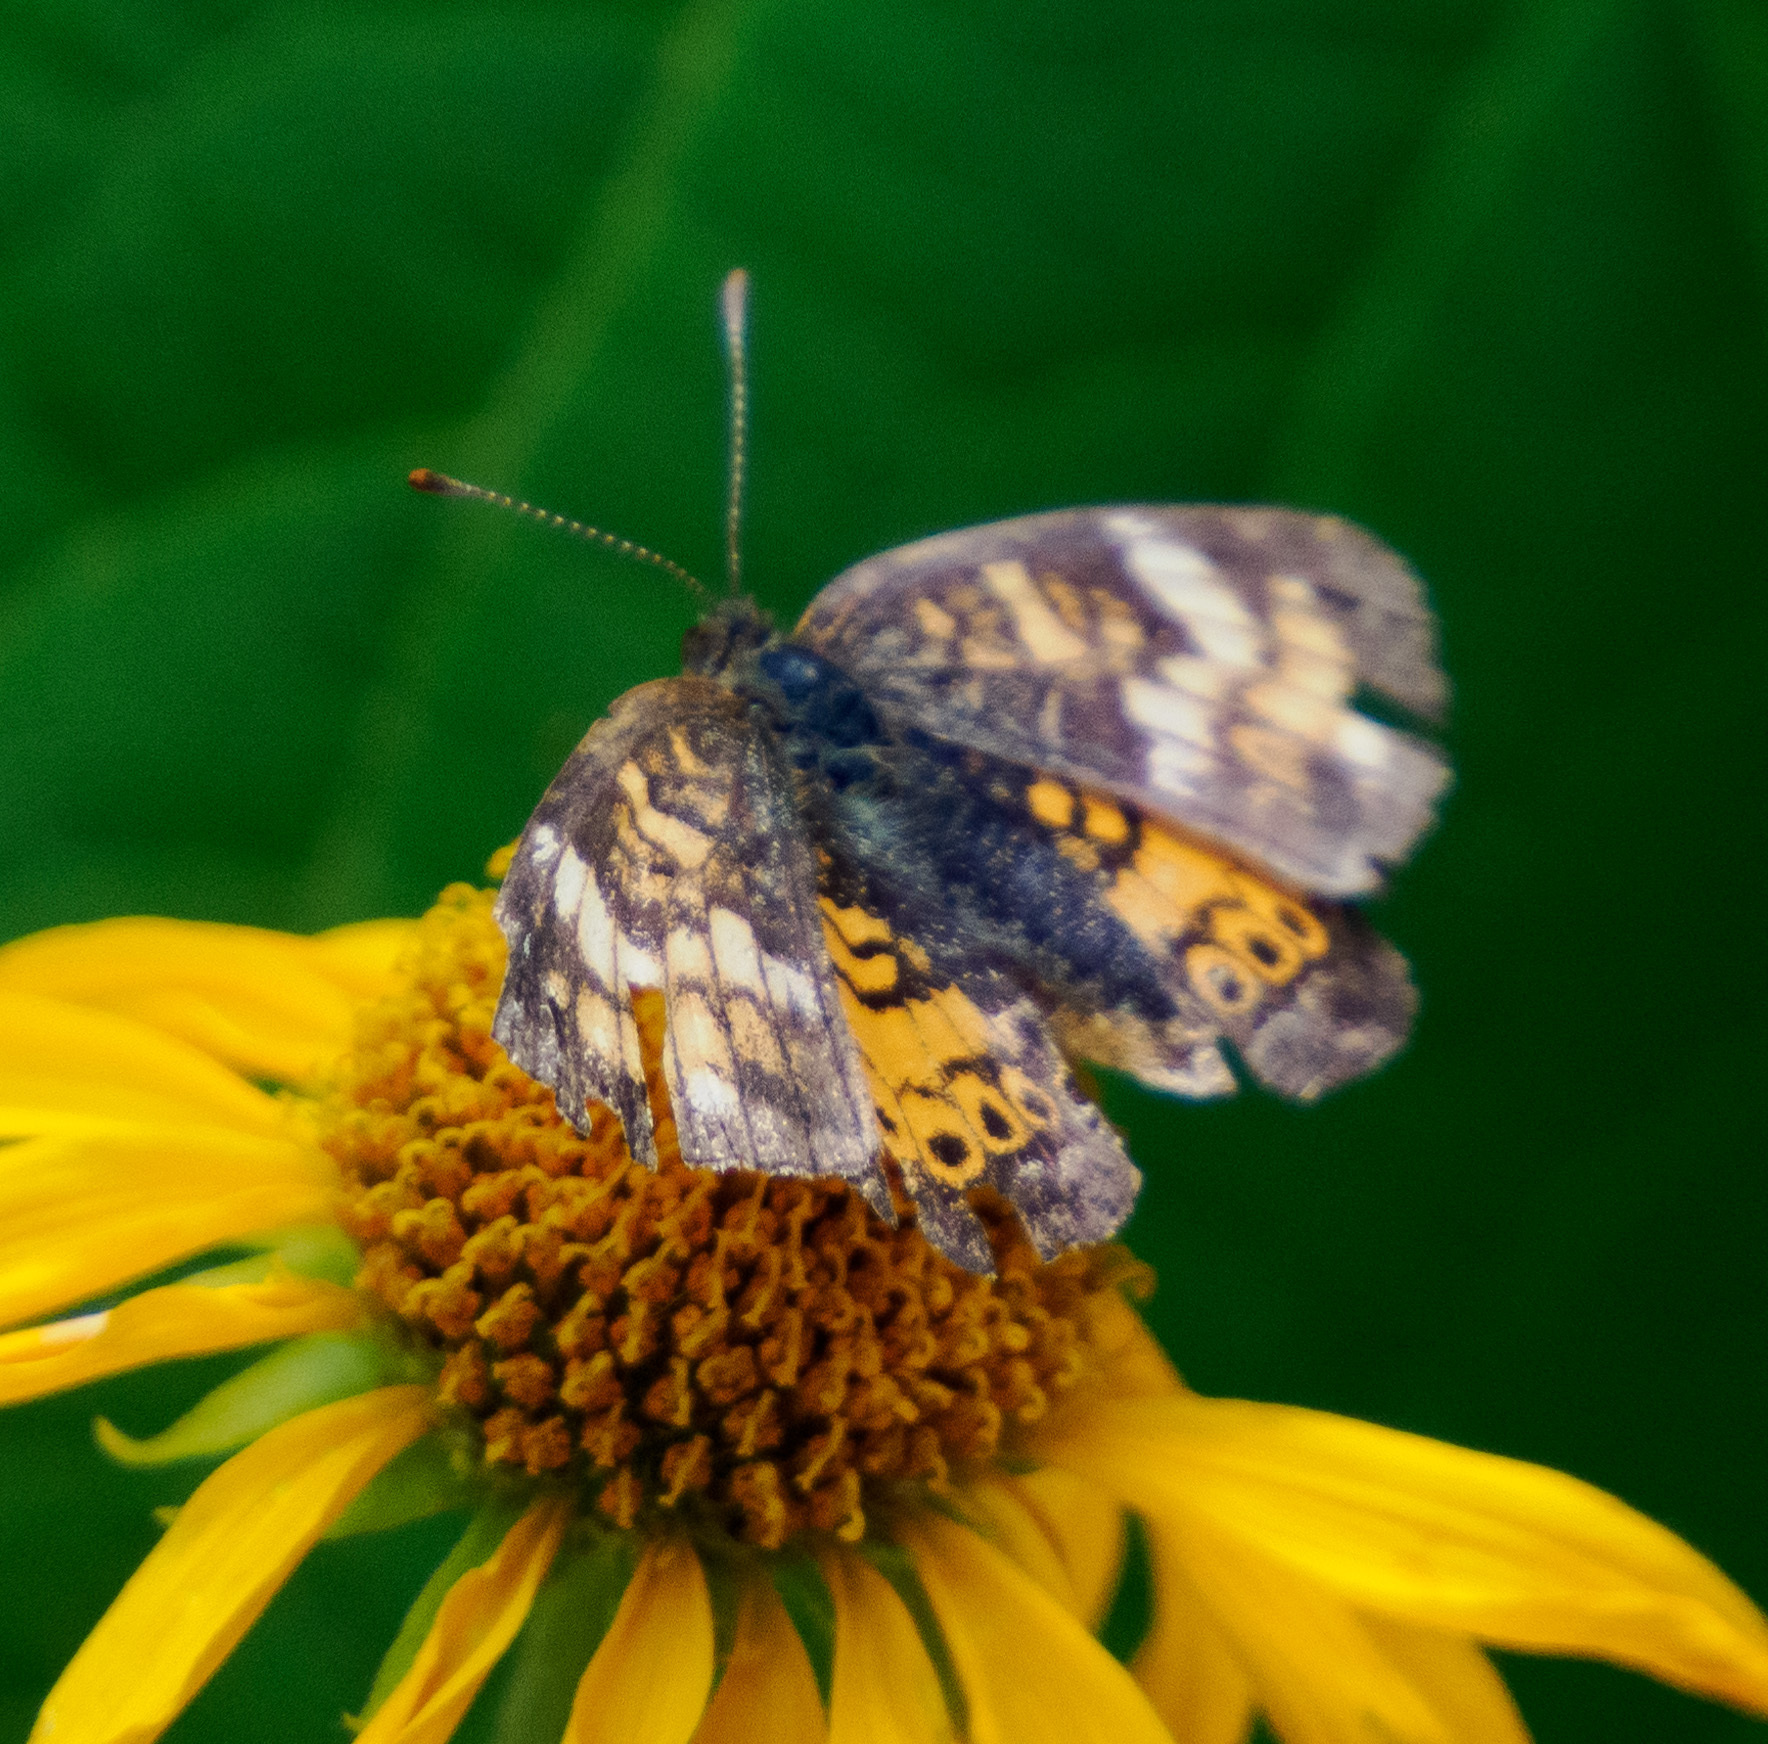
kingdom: Animalia
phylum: Arthropoda
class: Insecta
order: Lepidoptera
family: Nymphalidae
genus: Phyciodes
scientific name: Phyciodes tharos
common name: Pearl crescent
